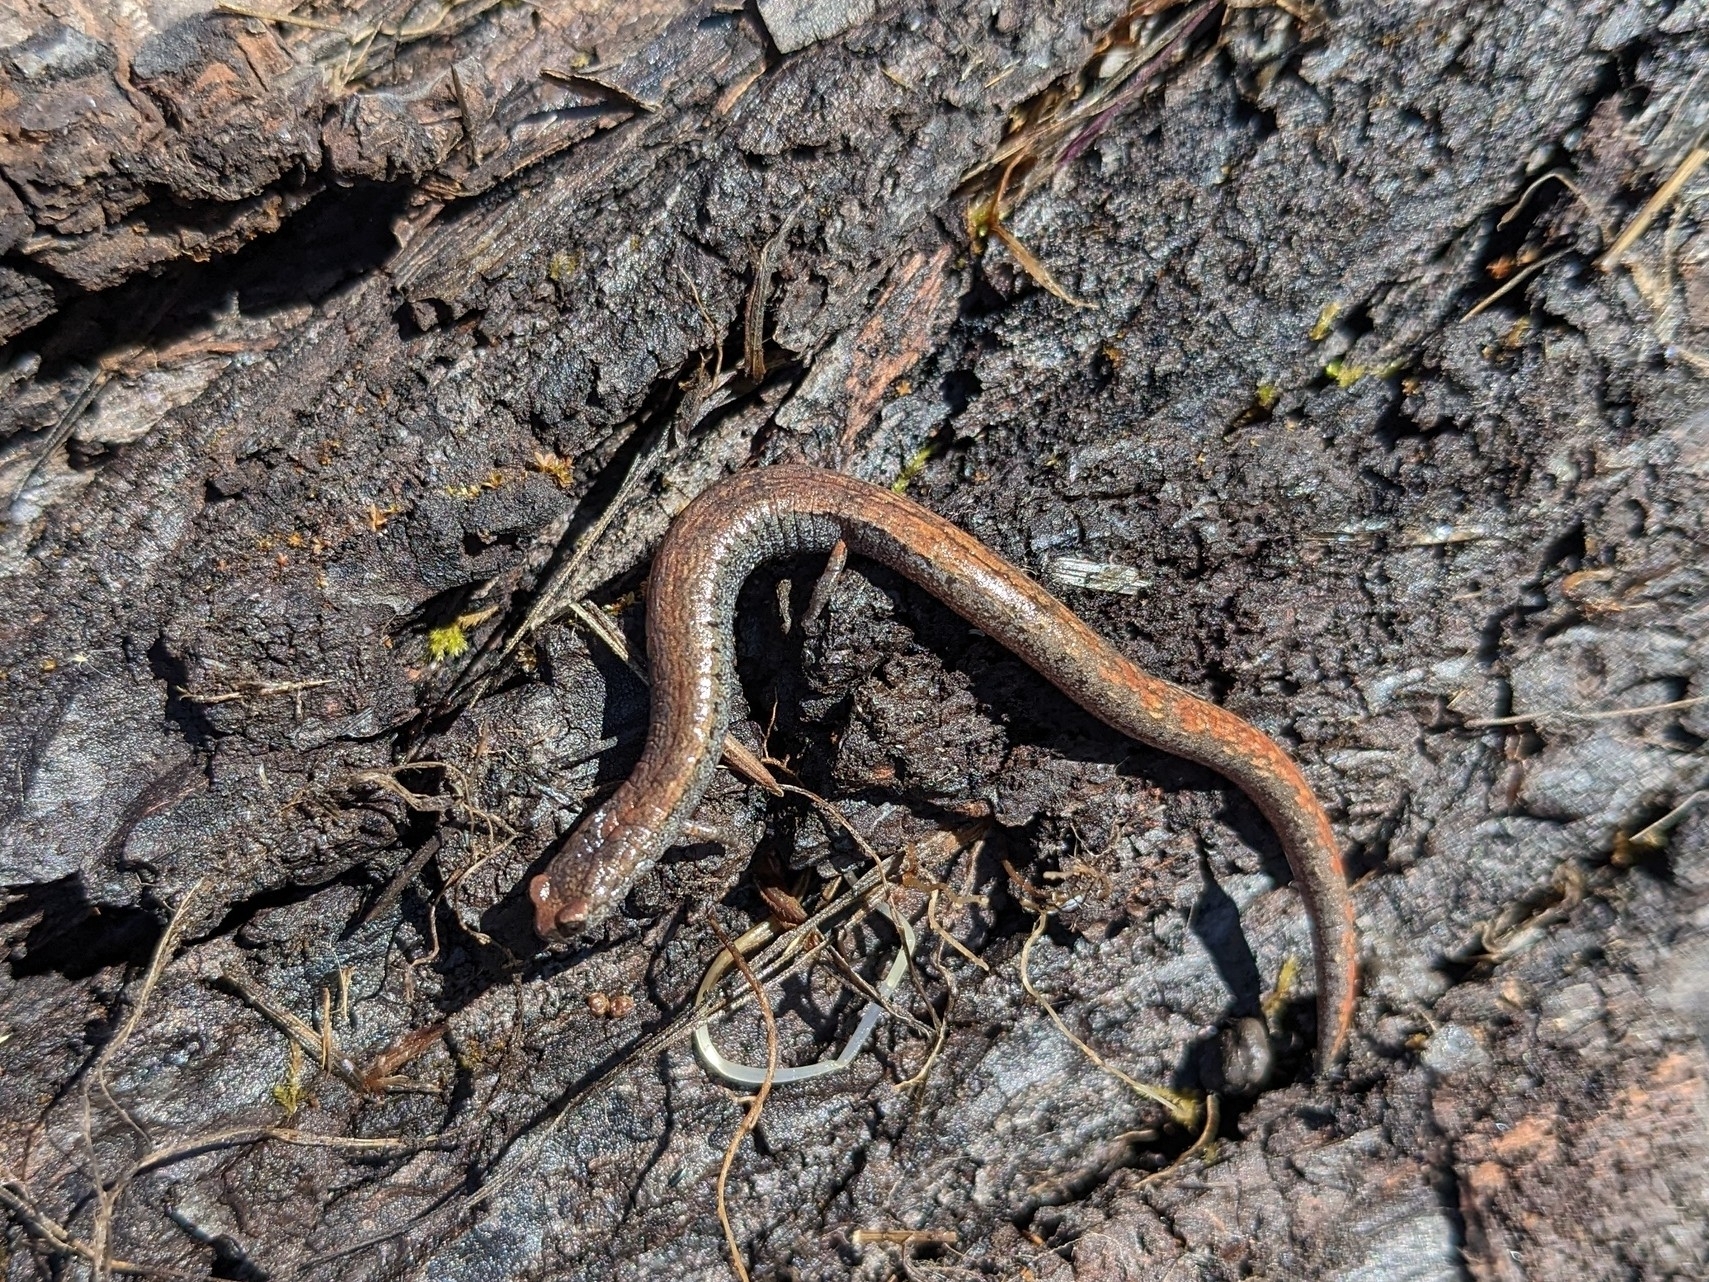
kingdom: Animalia
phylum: Chordata
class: Amphibia
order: Caudata
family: Plethodontidae
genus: Batrachoseps
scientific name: Batrachoseps attenuatus
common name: California slender salamander
